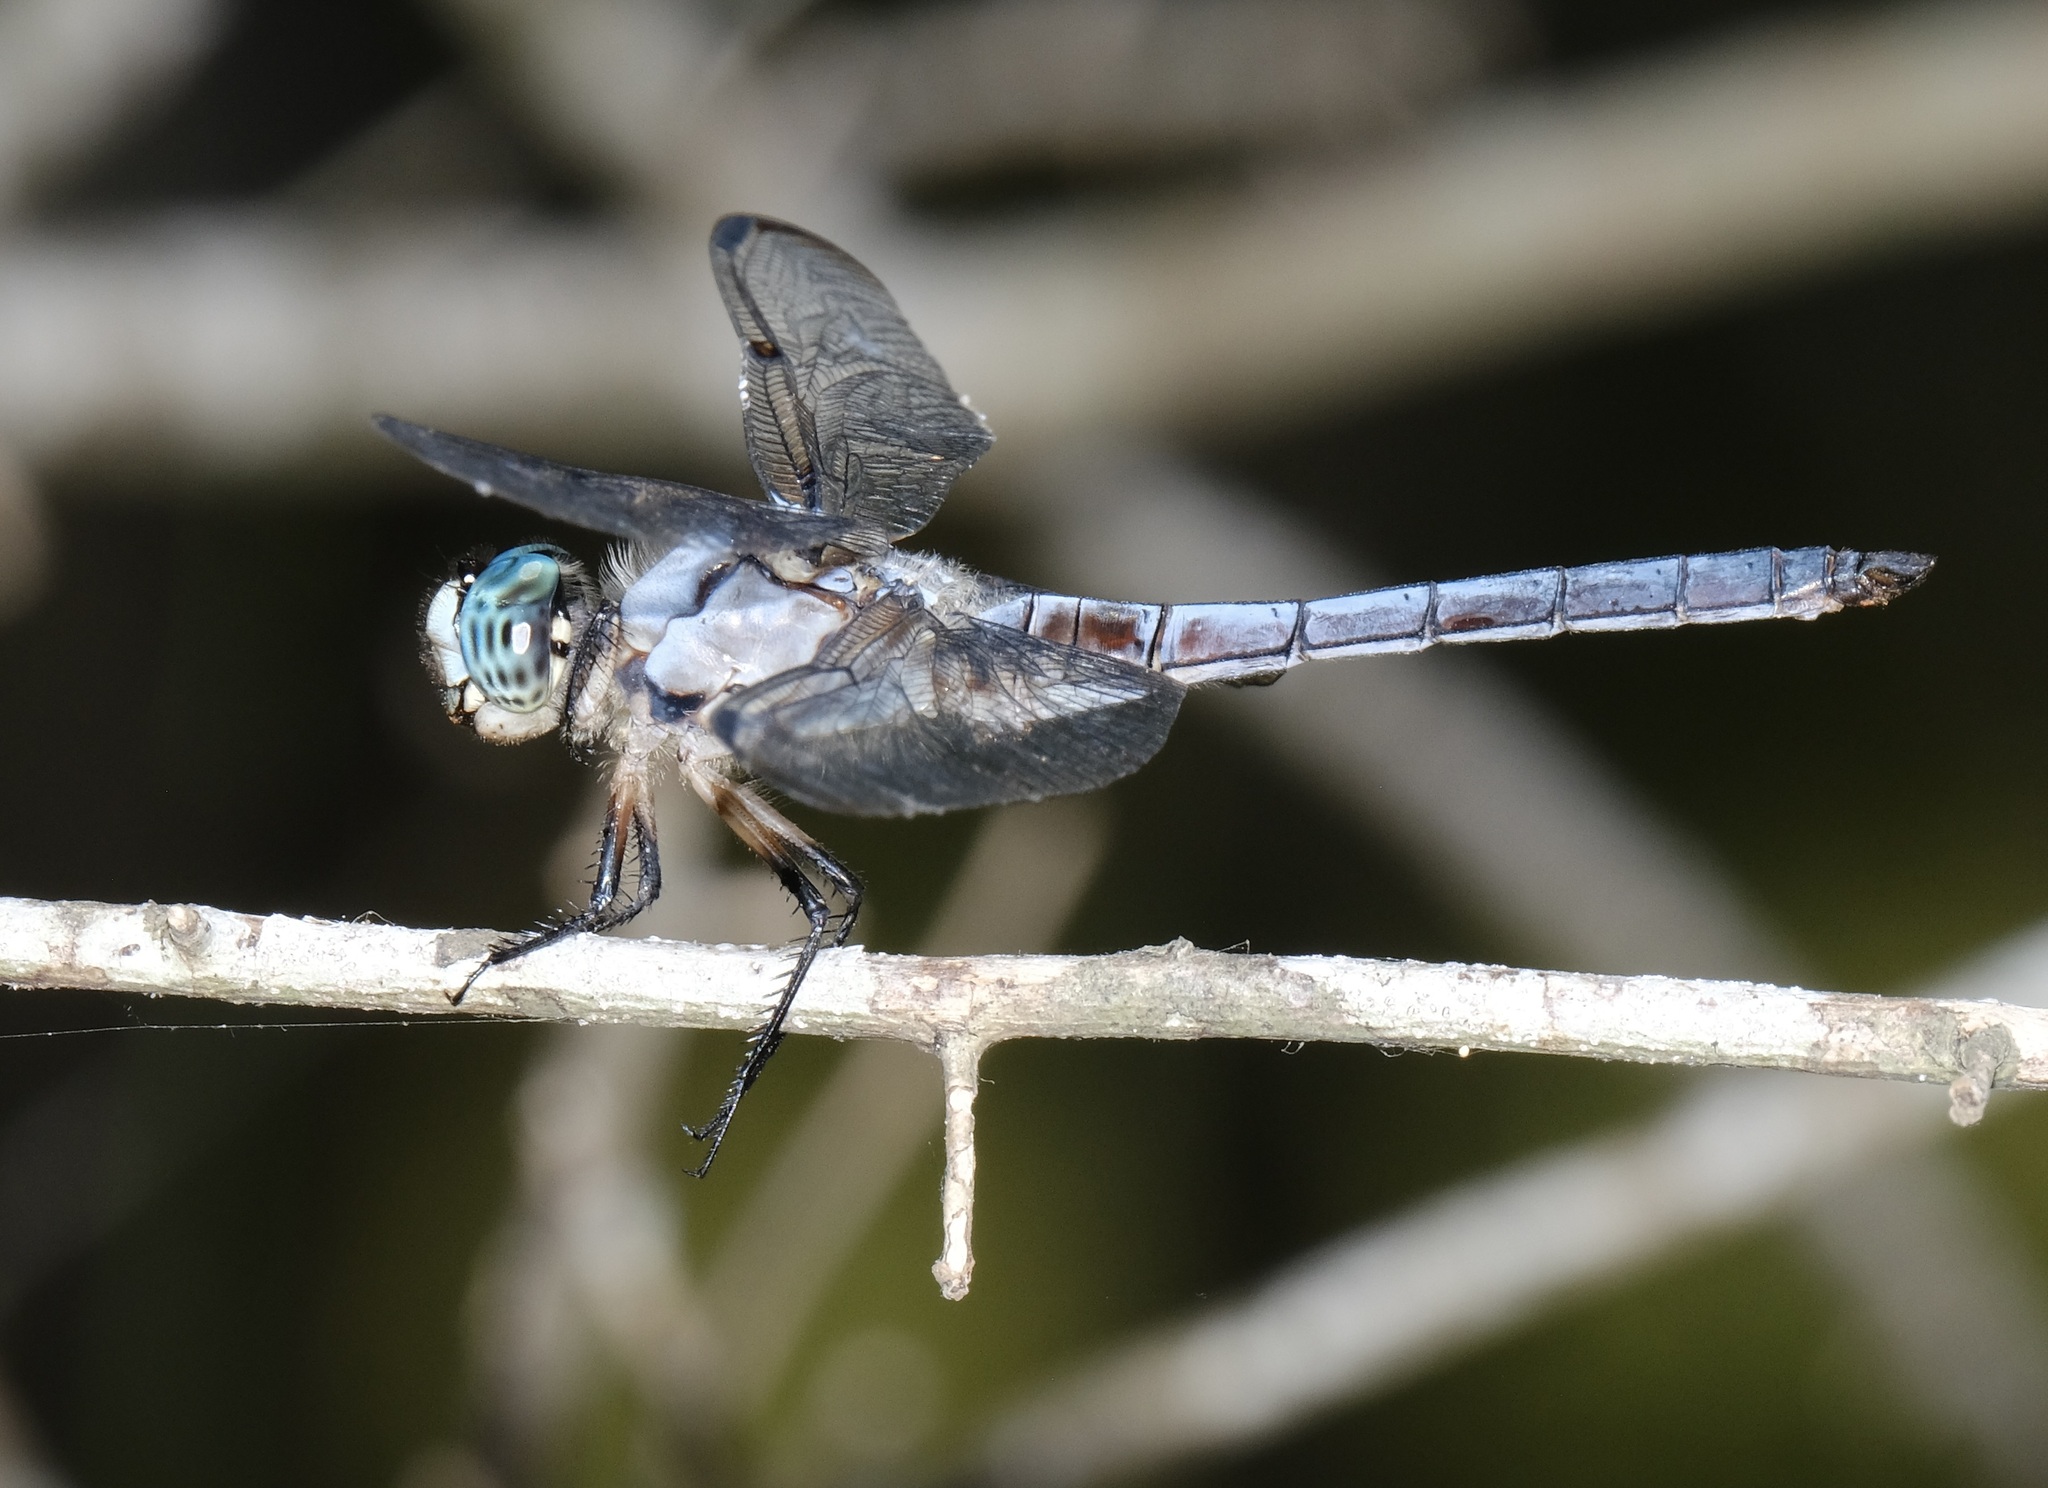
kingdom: Animalia
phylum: Arthropoda
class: Insecta
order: Odonata
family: Libellulidae
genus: Libellula
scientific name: Libellula vibrans
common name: Great blue skimmer
